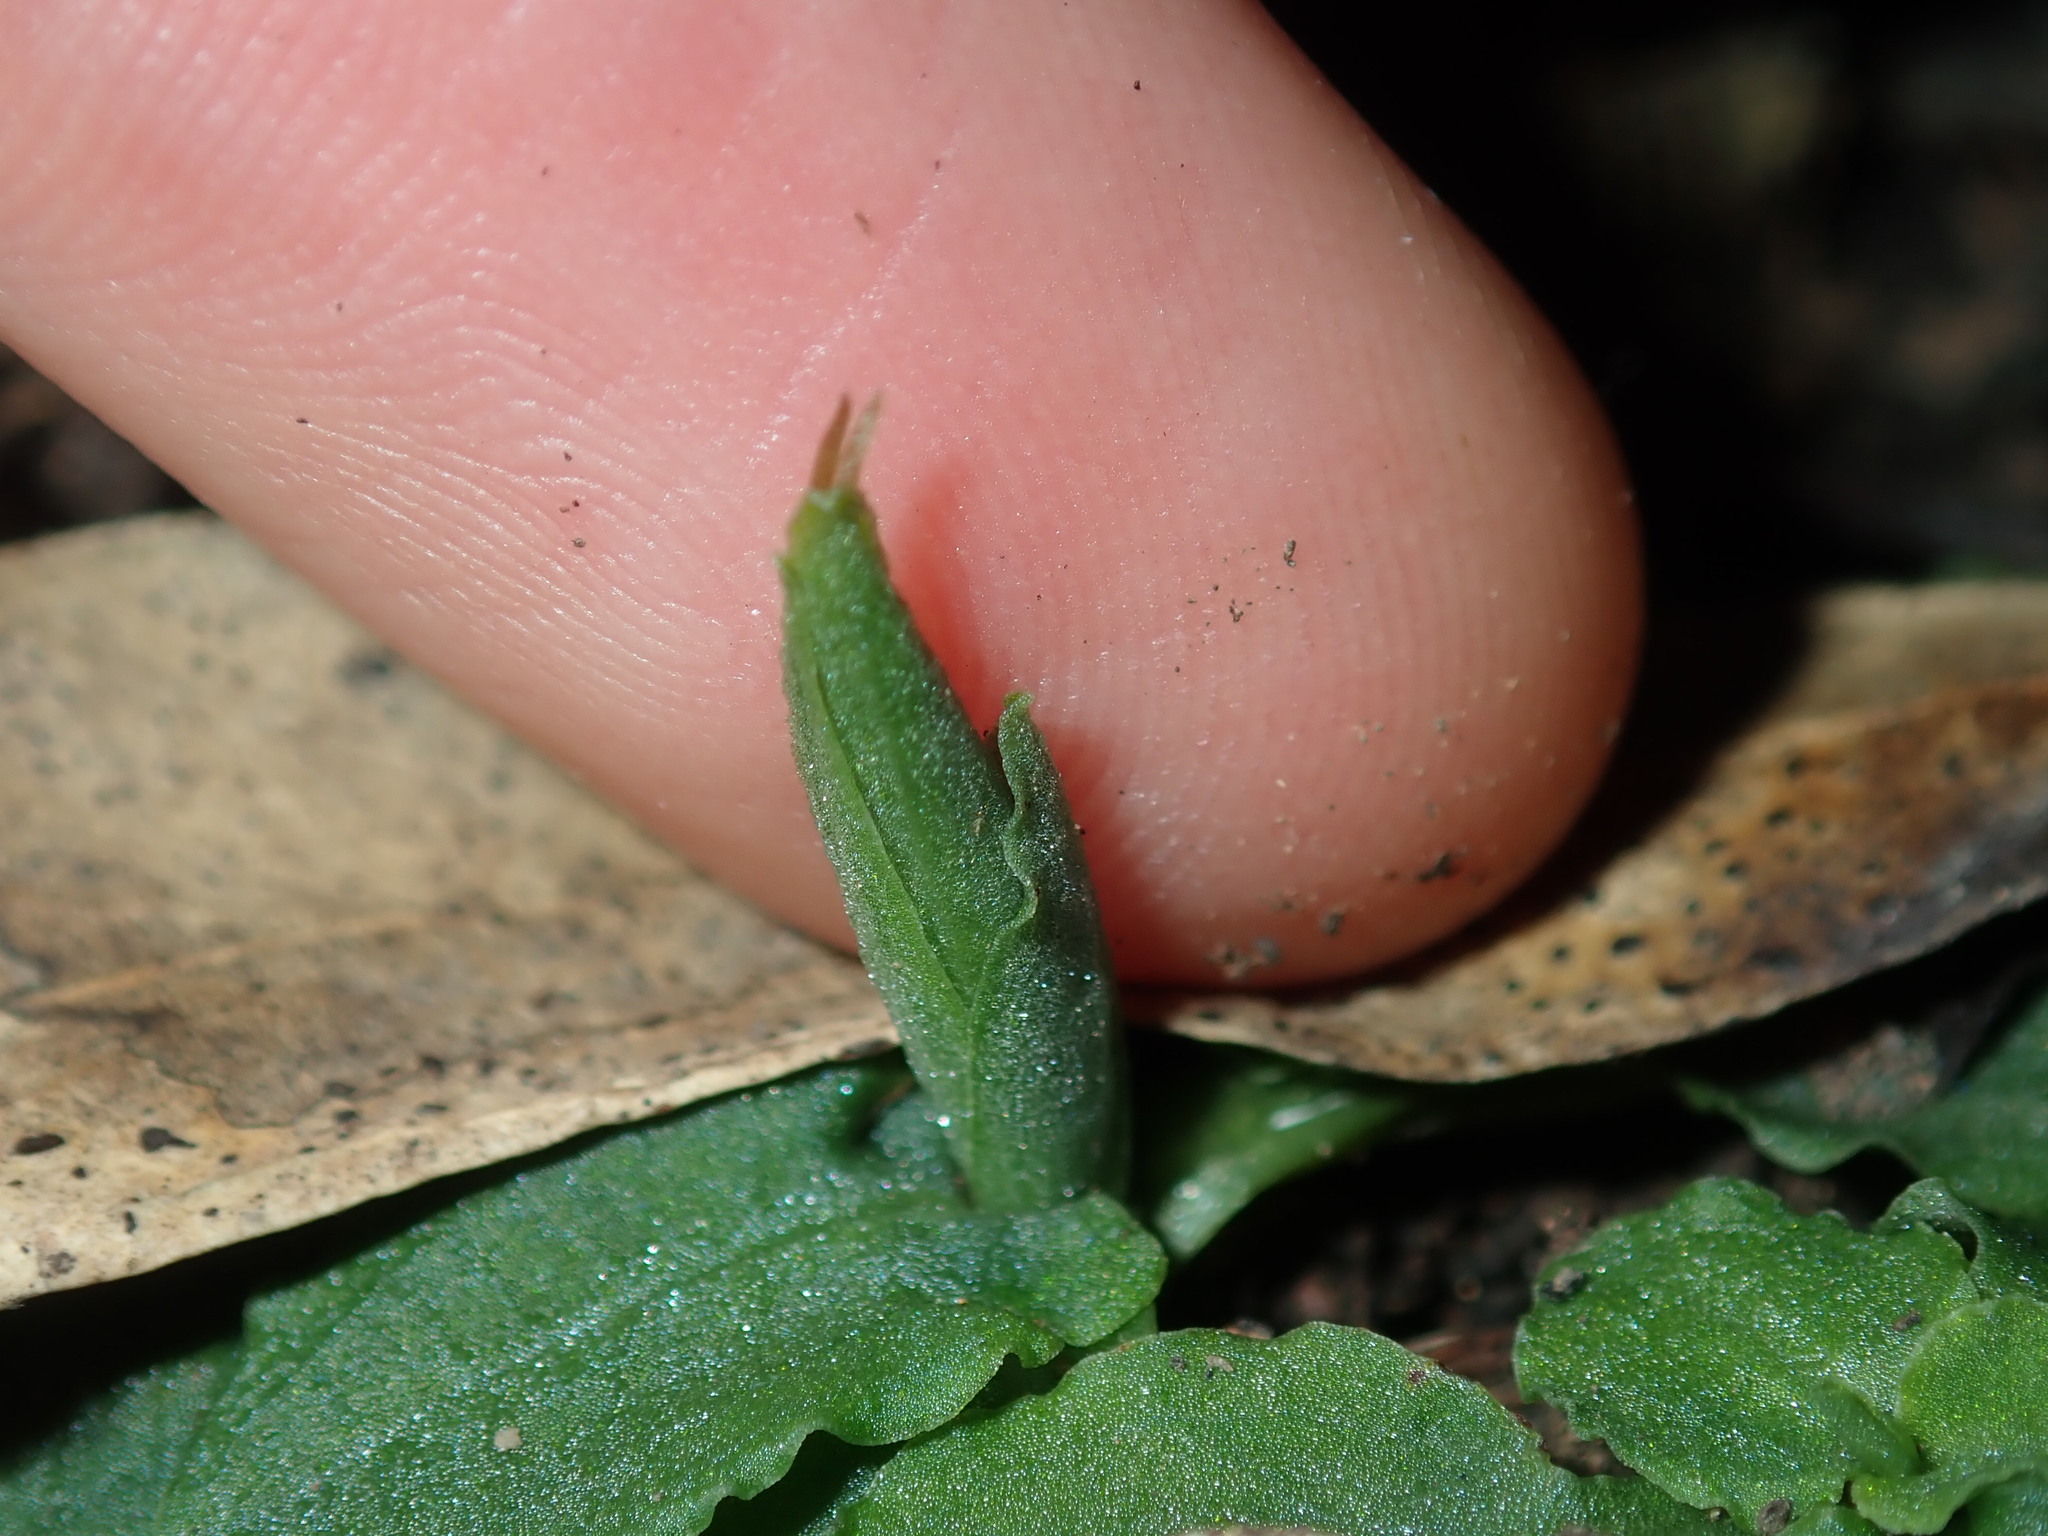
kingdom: Plantae
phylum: Tracheophyta
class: Liliopsida
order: Asparagales
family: Orchidaceae
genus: Pterostylis
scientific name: Pterostylis oblonga
